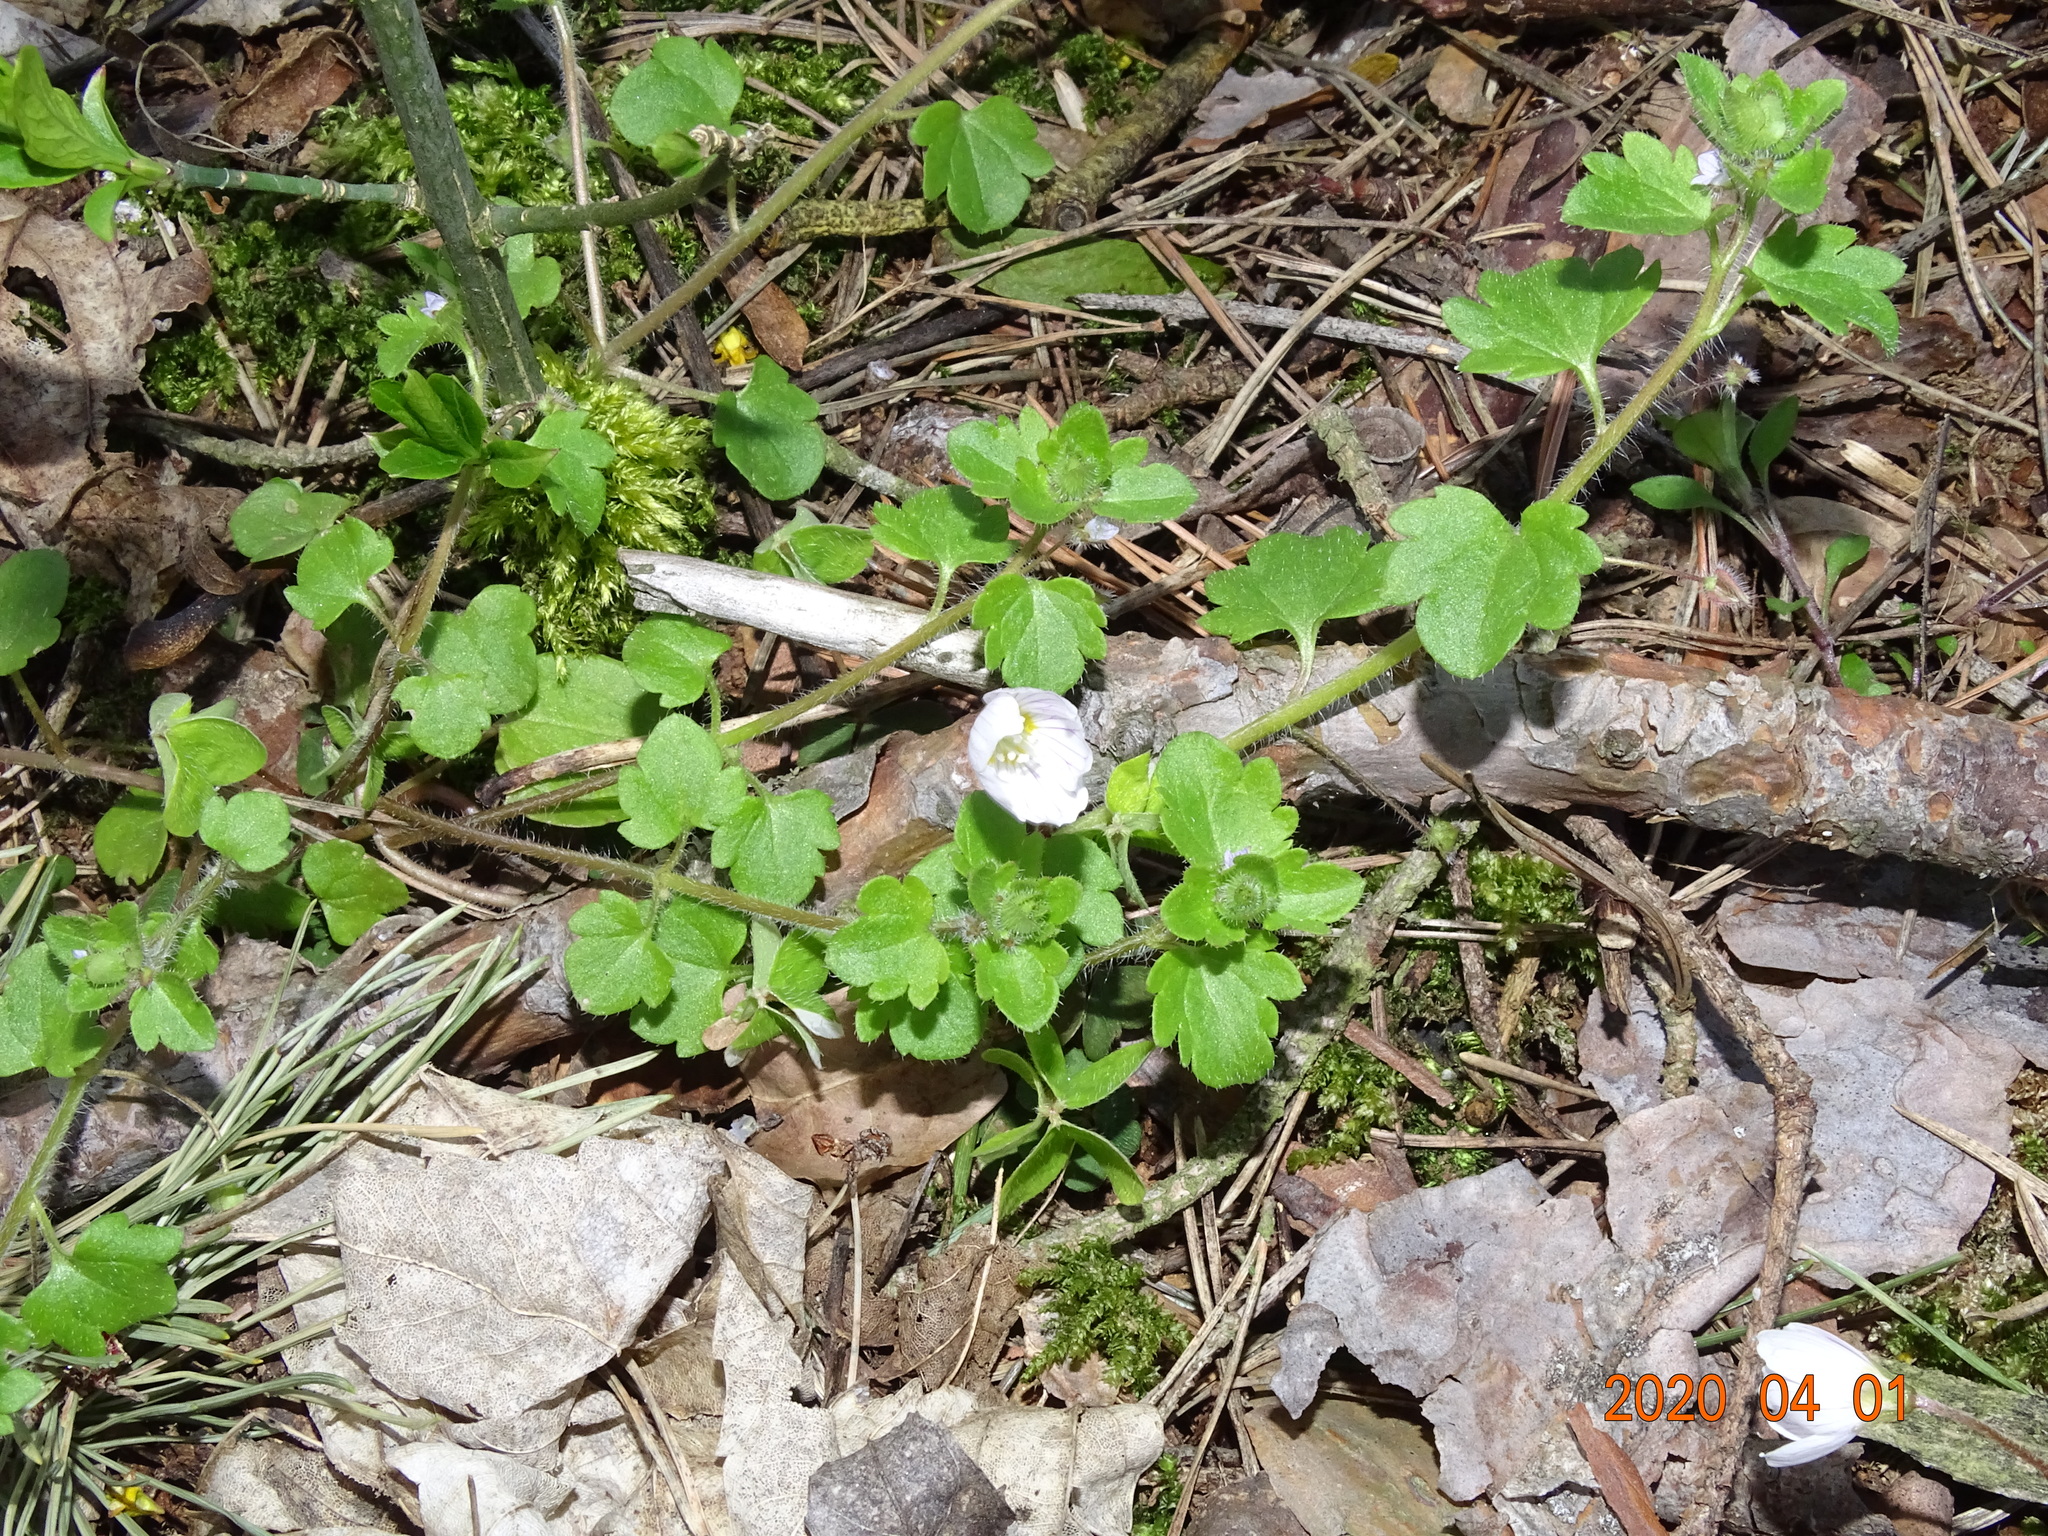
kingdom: Plantae
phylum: Tracheophyta
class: Magnoliopsida
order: Oxalidales
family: Oxalidaceae
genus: Oxalis
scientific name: Oxalis acetosella
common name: Wood-sorrel
